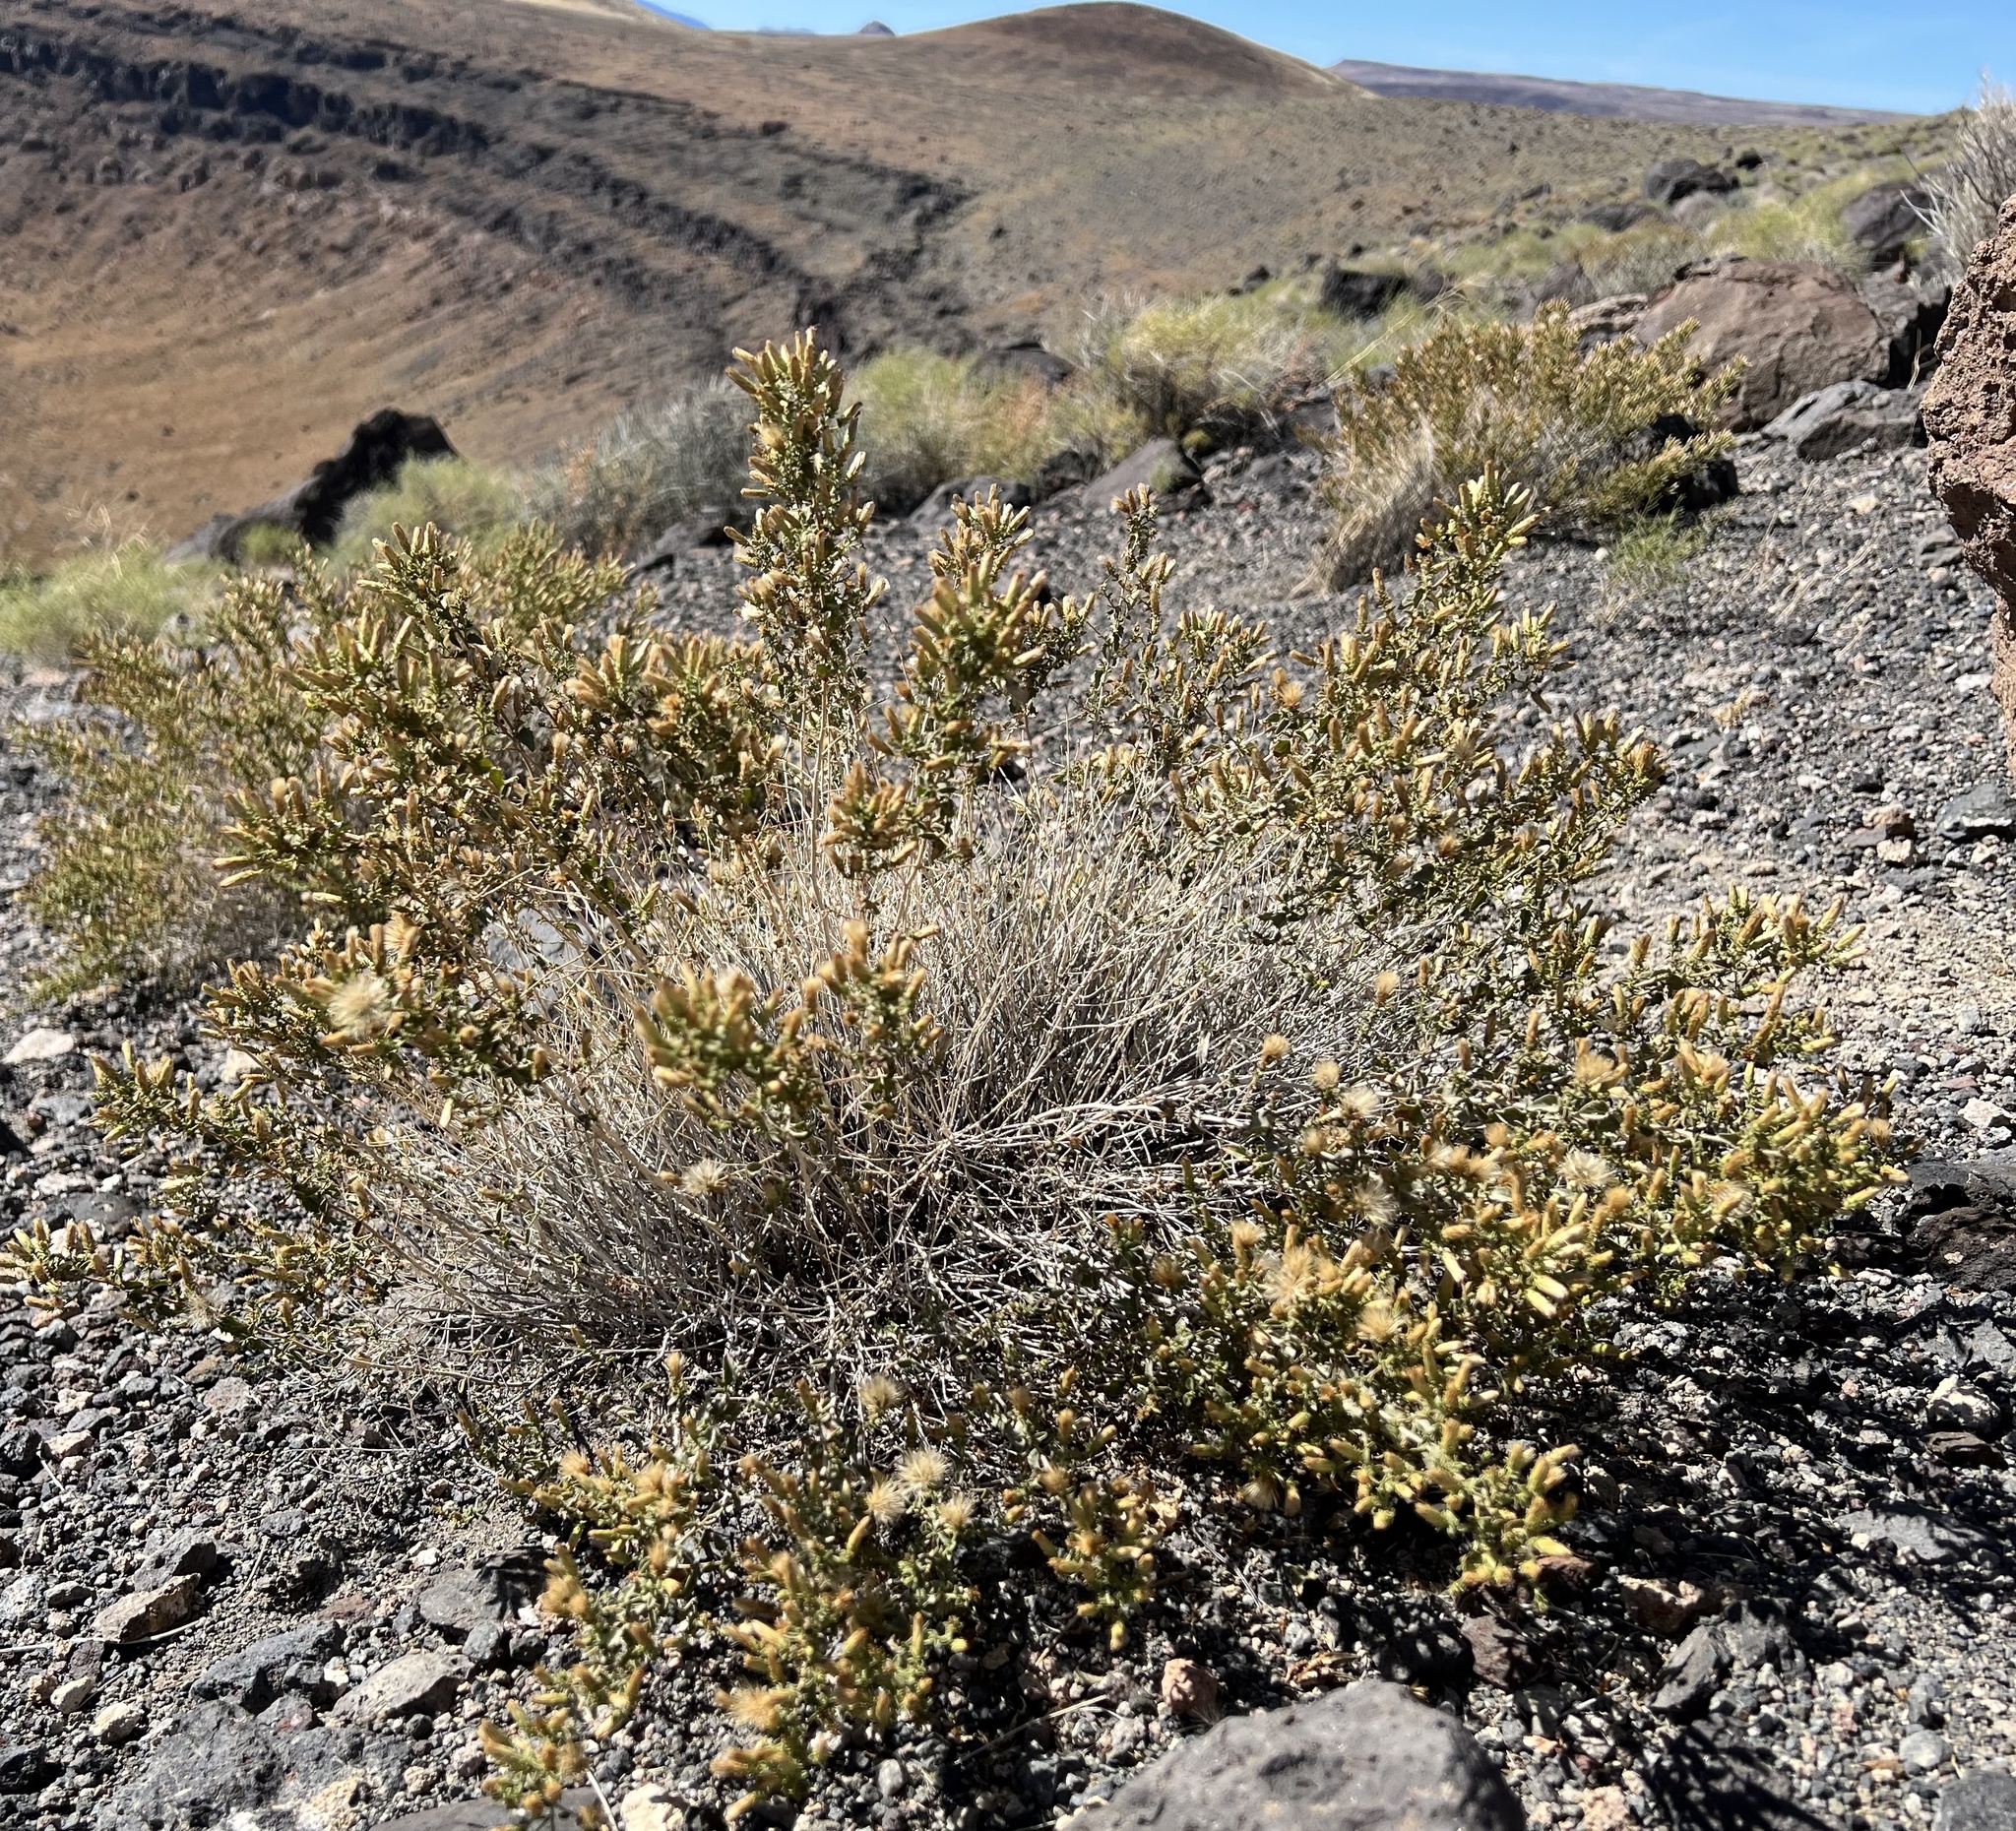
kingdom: Plantae
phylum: Tracheophyta
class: Magnoliopsida
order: Asterales
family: Asteraceae
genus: Brickellia
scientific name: Brickellia microphylla
